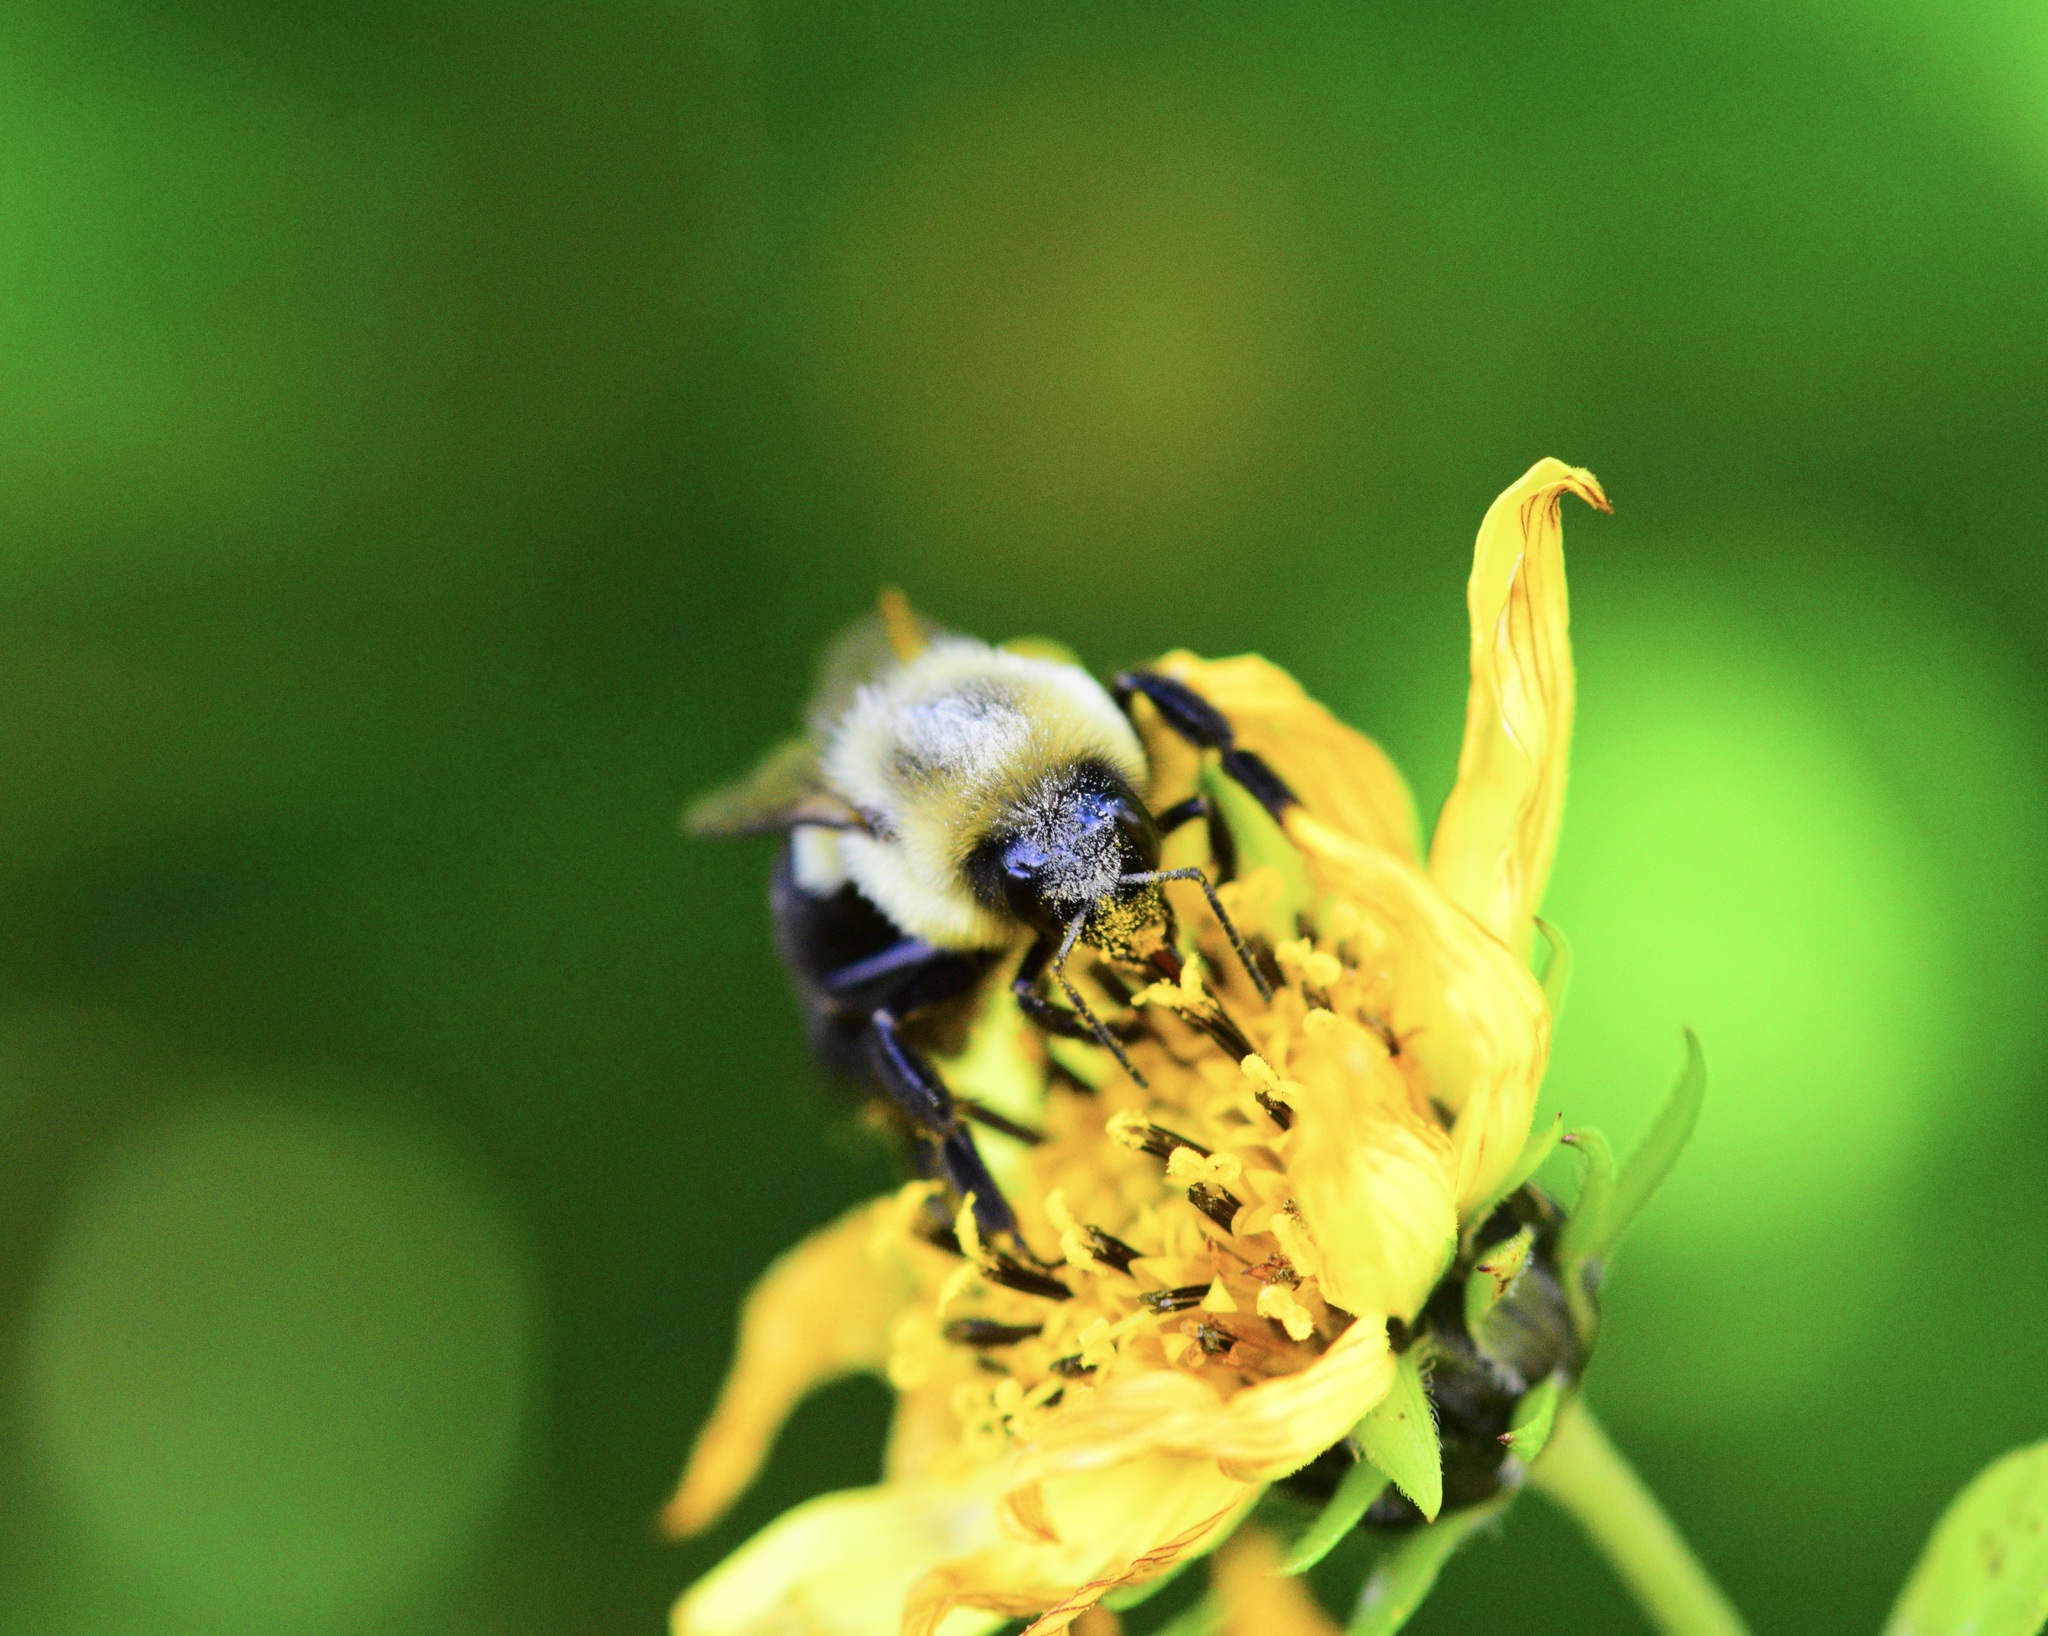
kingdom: Animalia
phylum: Arthropoda
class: Insecta
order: Hymenoptera
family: Apidae
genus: Bombus
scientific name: Bombus impatiens
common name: Common eastern bumble bee
